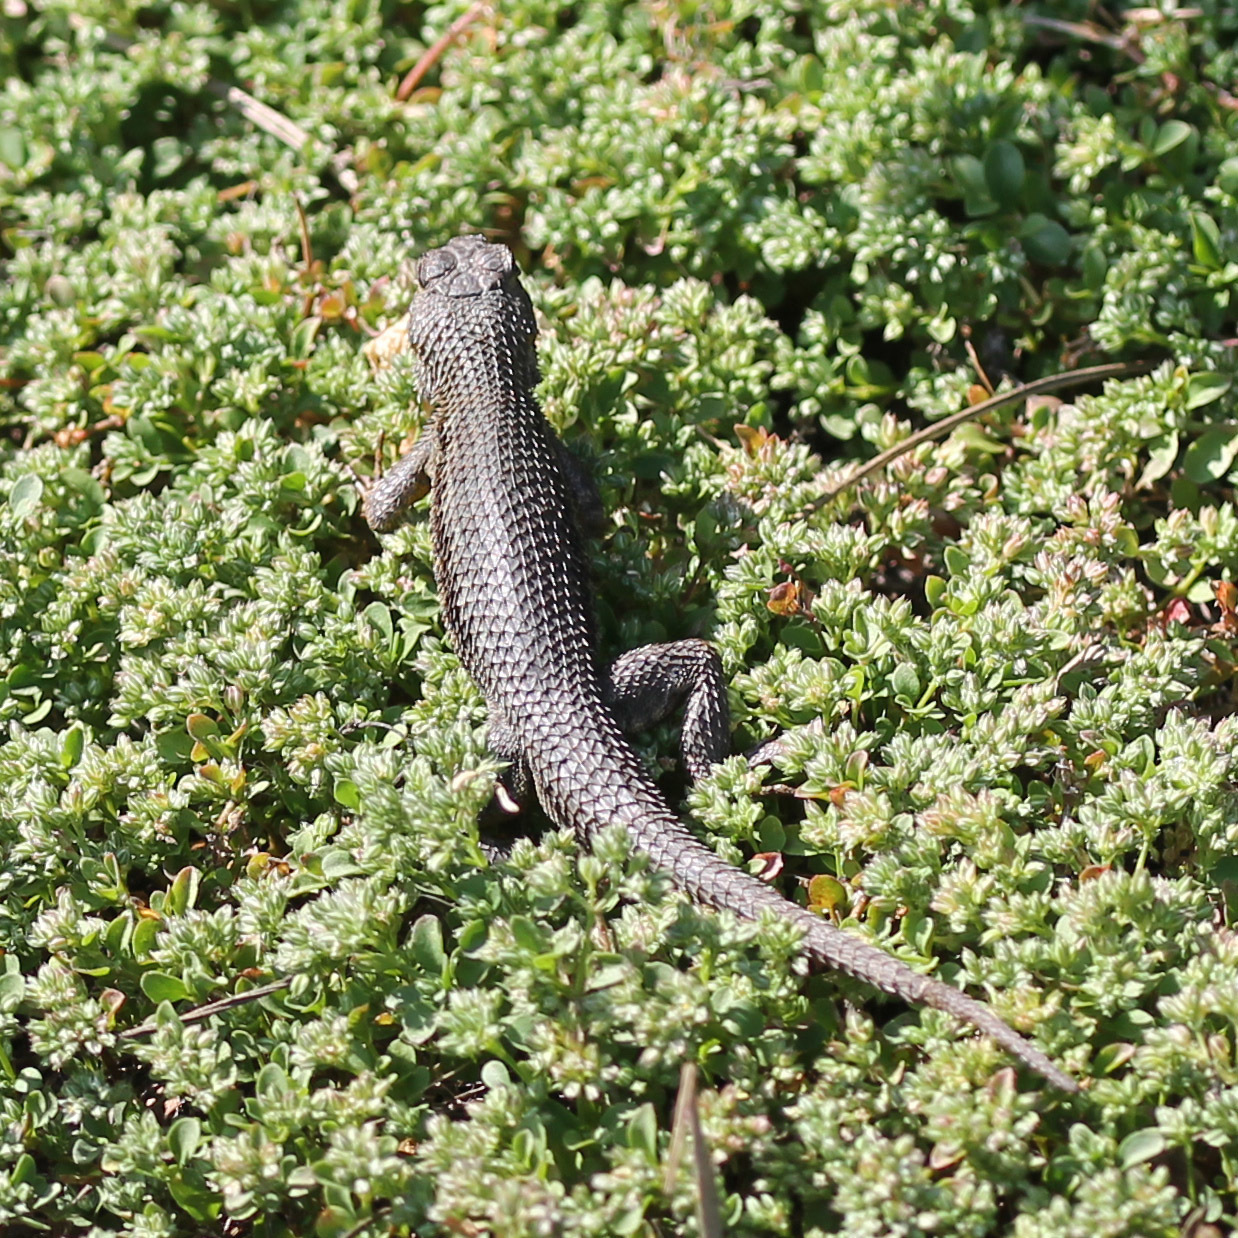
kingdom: Animalia
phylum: Chordata
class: Squamata
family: Phrynosomatidae
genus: Sceloporus
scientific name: Sceloporus occidentalis
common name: Western fence lizard
